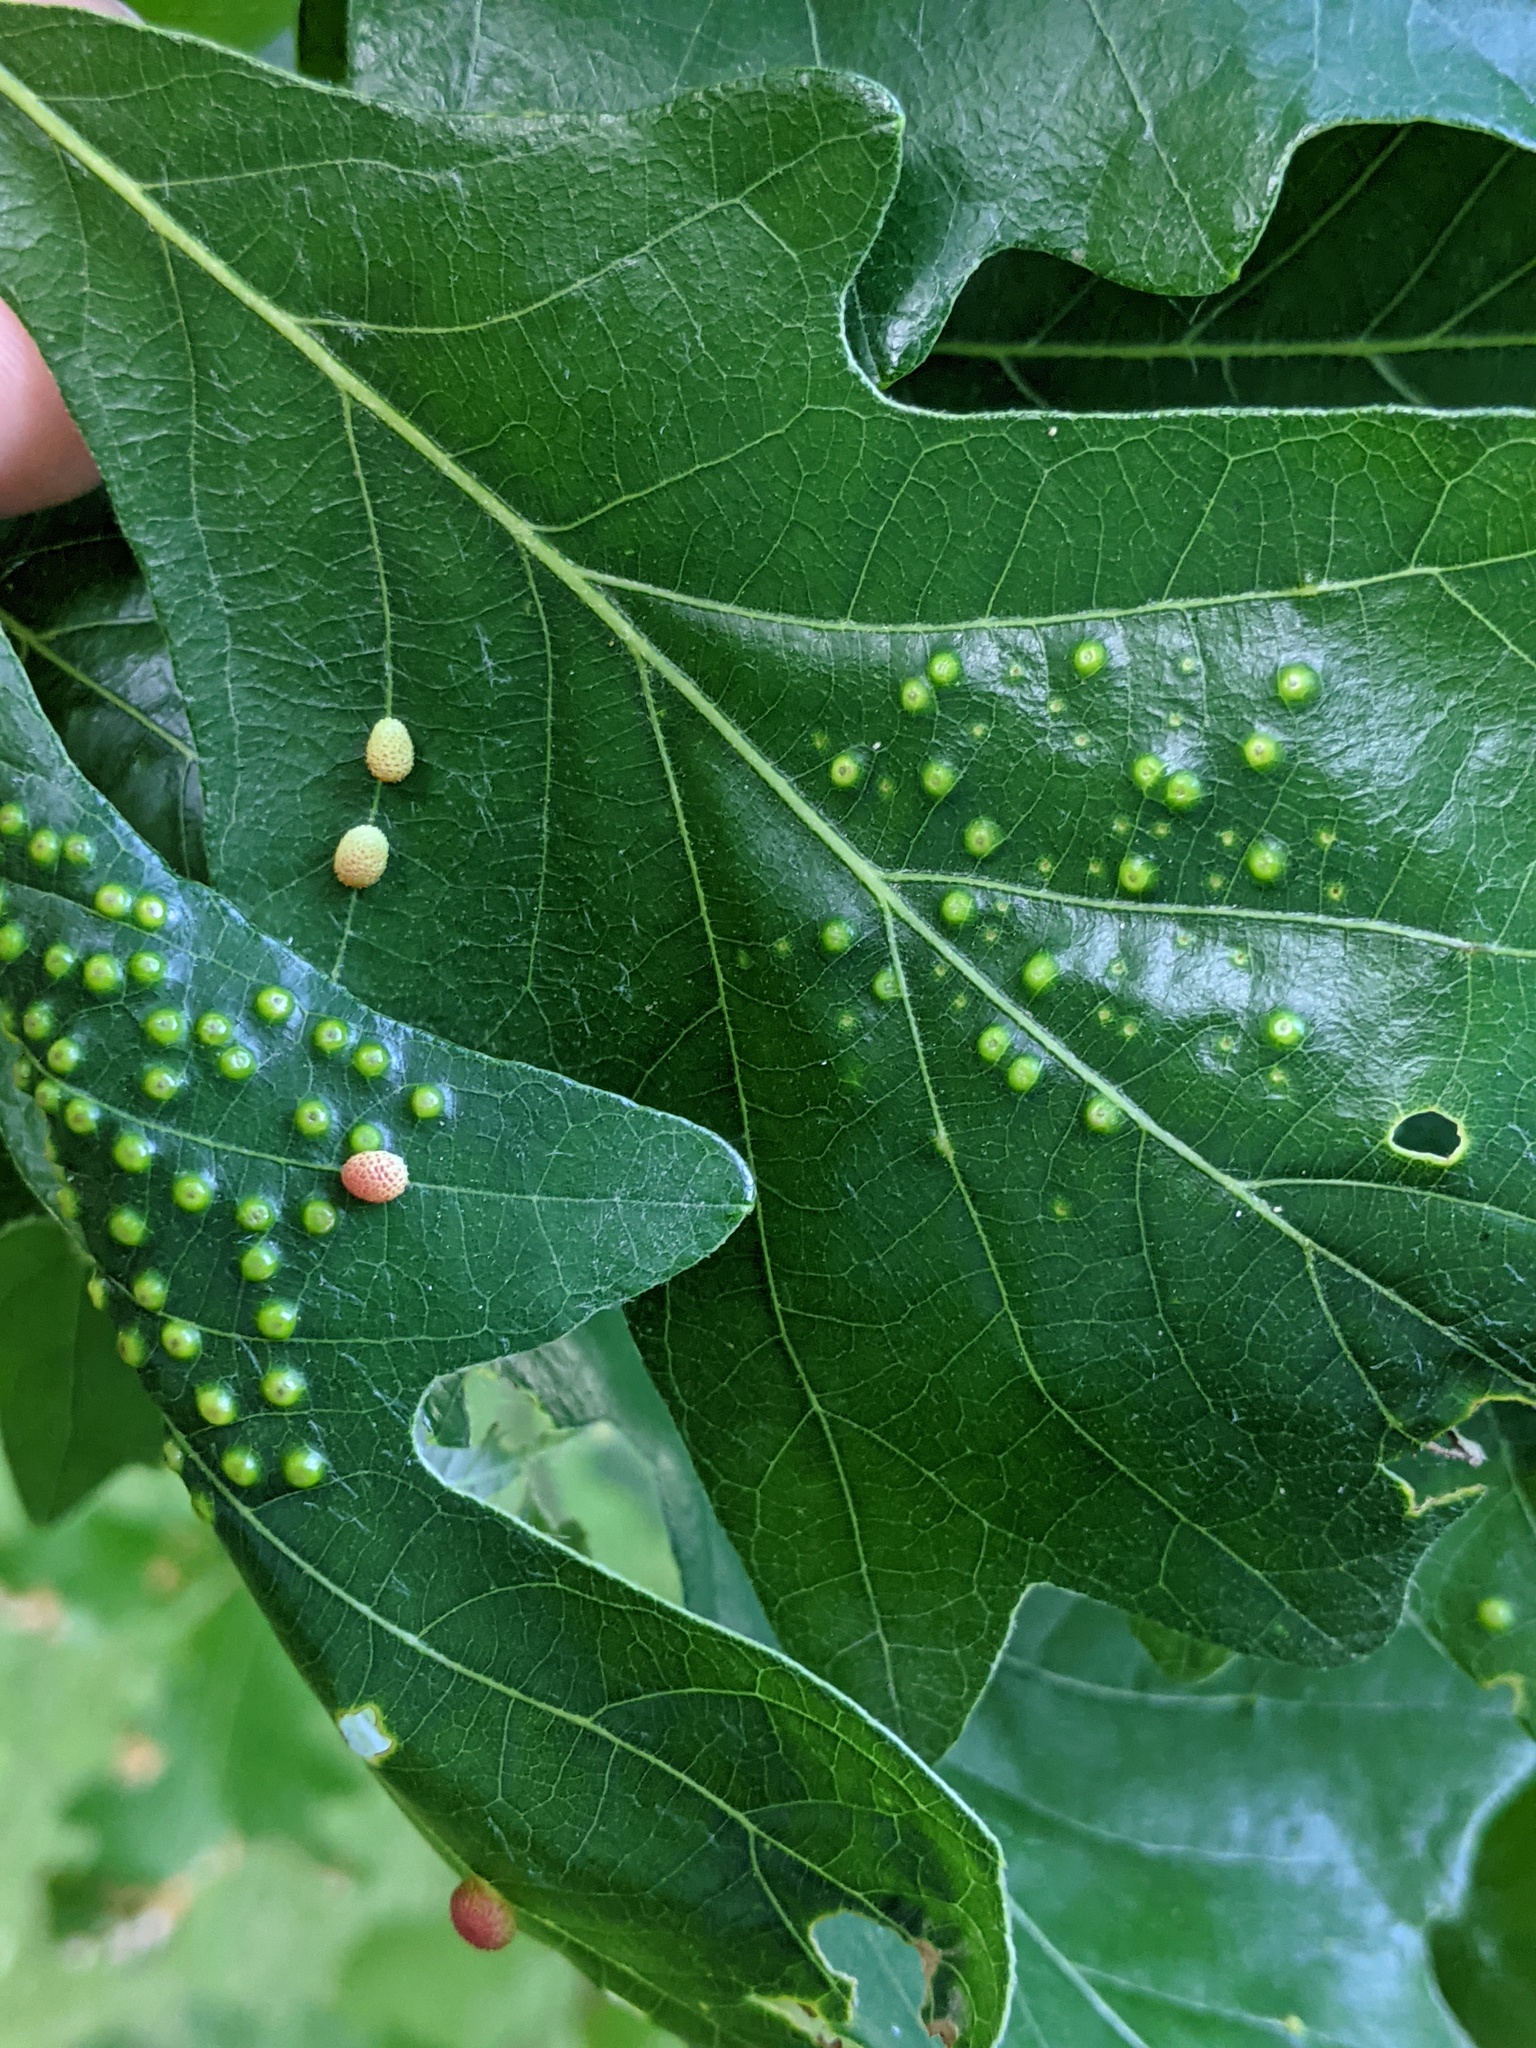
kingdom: Animalia
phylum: Arthropoda
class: Insecta
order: Hymenoptera
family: Cynipidae
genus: Acraspis
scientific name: Acraspis quercushirta
